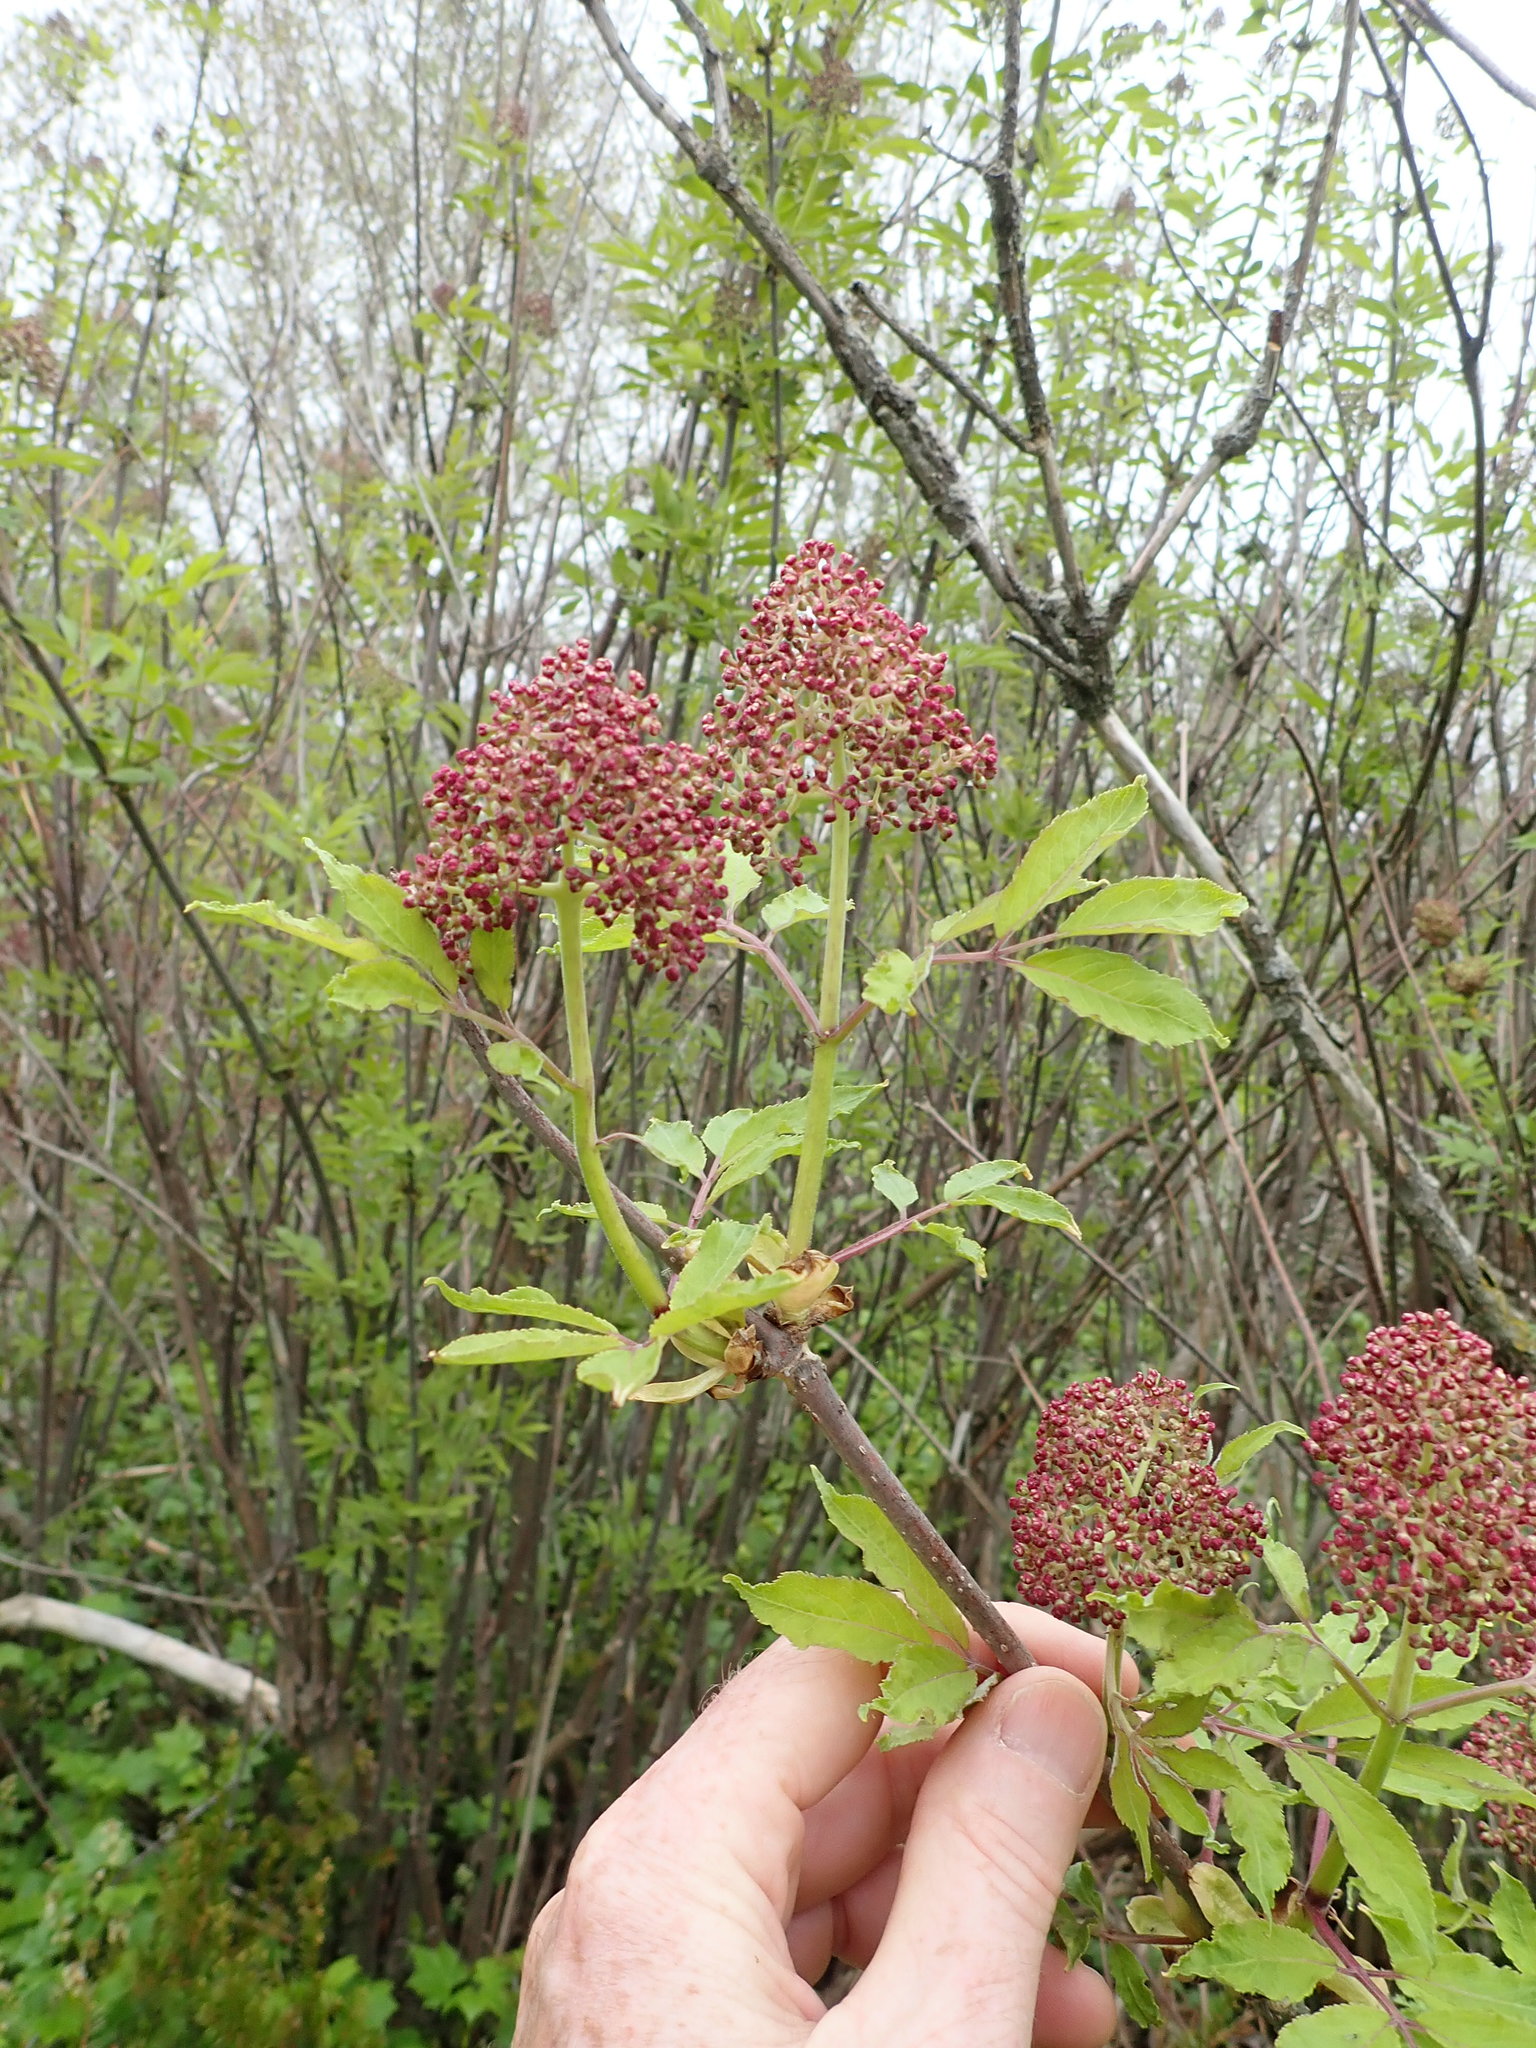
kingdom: Plantae
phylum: Tracheophyta
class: Magnoliopsida
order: Dipsacales
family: Viburnaceae
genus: Sambucus
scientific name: Sambucus racemosa
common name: Red-berried elder
